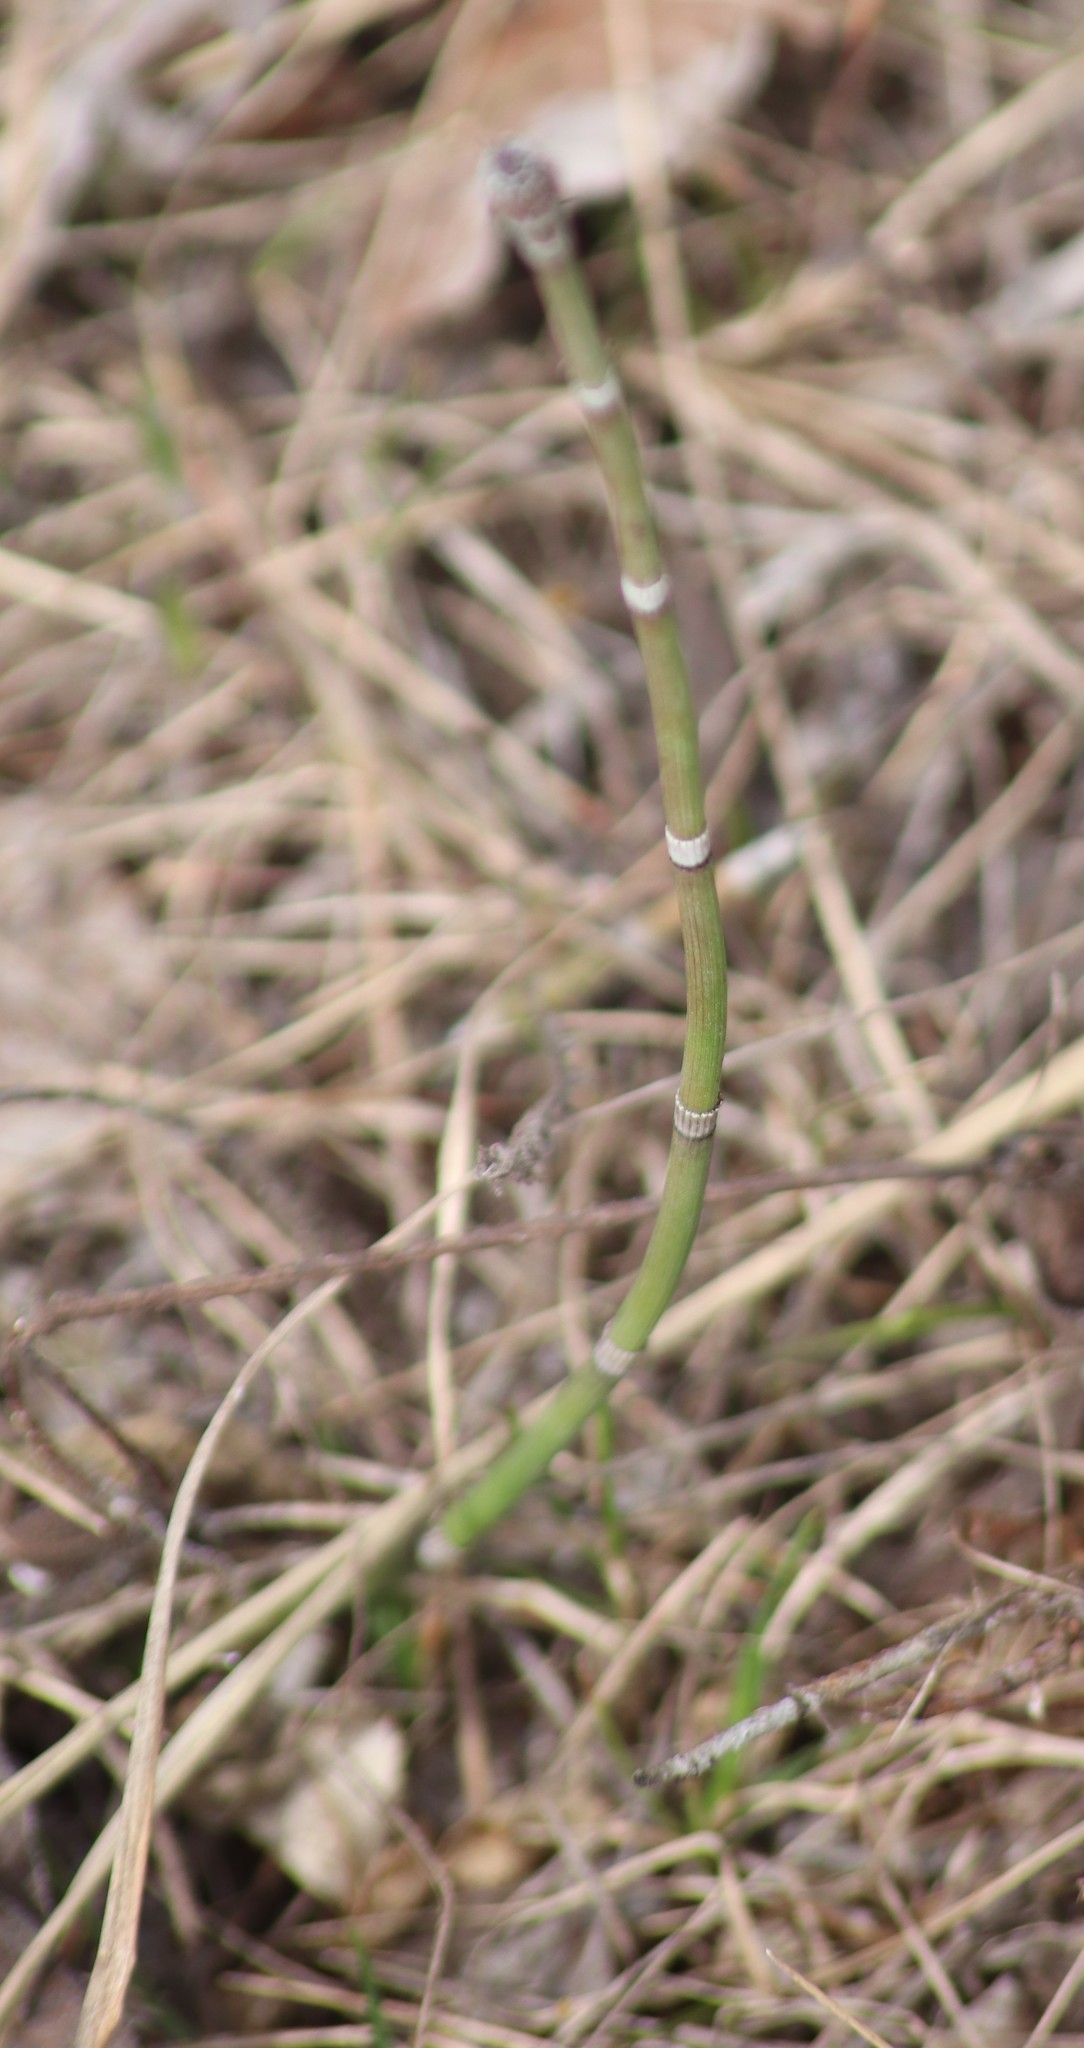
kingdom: Plantae
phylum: Tracheophyta
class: Polypodiopsida
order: Equisetales
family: Equisetaceae
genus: Equisetum
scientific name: Equisetum hyemale
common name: Rough horsetail
